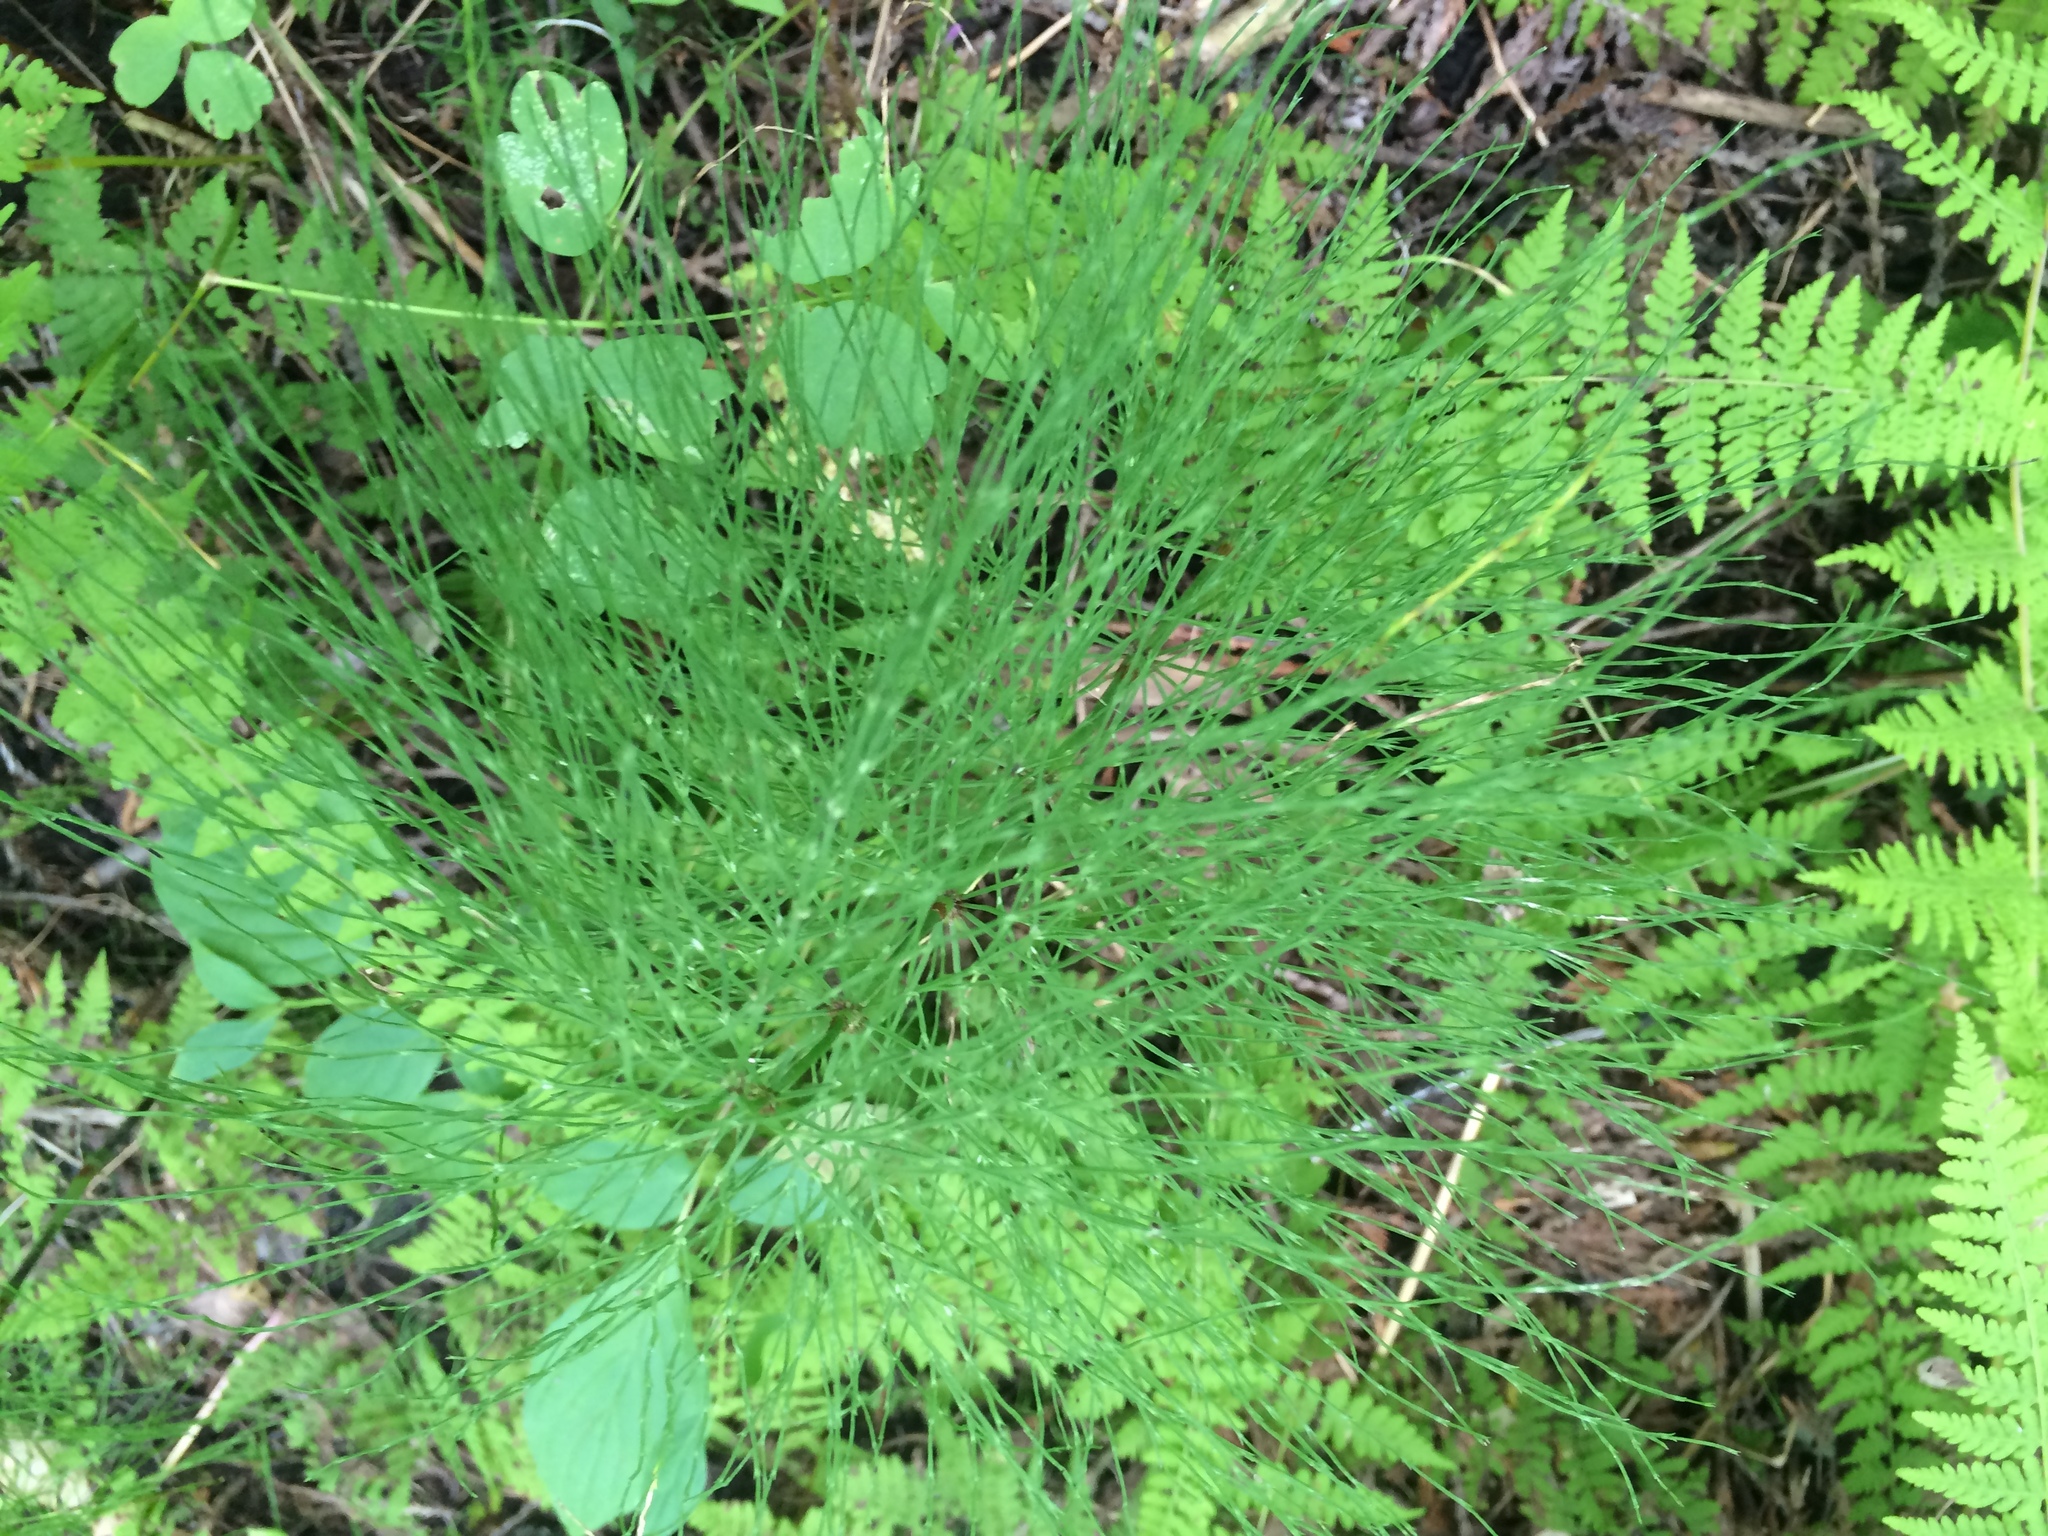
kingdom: Plantae
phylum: Tracheophyta
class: Polypodiopsida
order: Equisetales
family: Equisetaceae
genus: Equisetum
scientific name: Equisetum sylvaticum
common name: Wood horsetail
